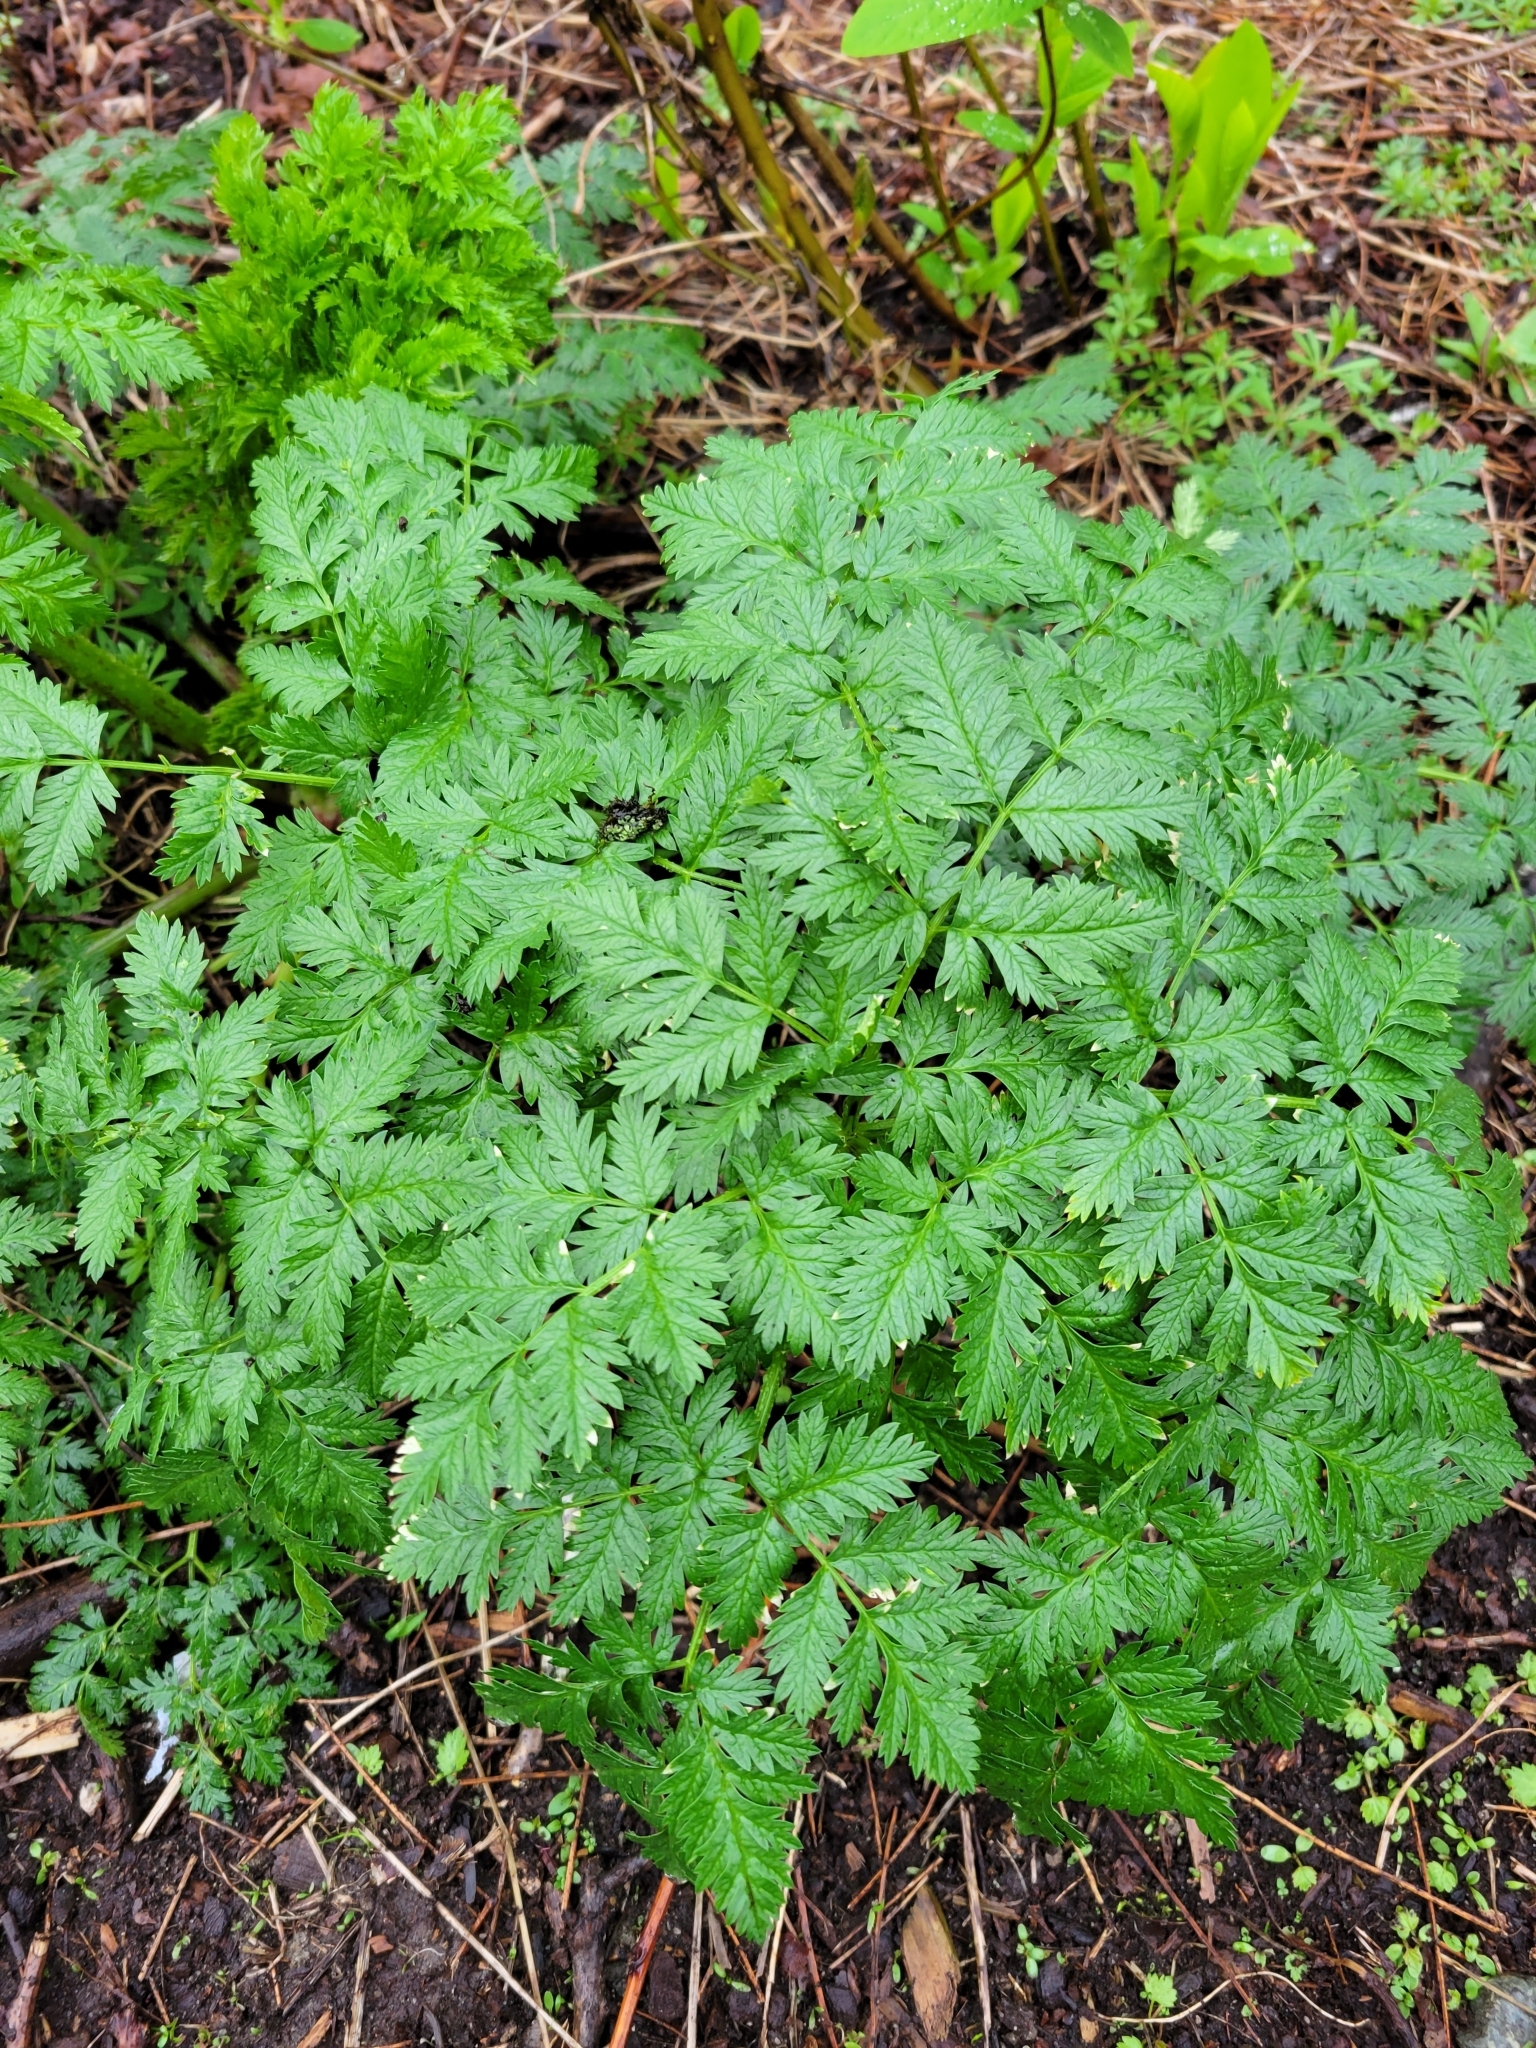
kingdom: Plantae
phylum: Tracheophyta
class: Magnoliopsida
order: Apiales
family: Apiaceae
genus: Conium
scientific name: Conium maculatum
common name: Hemlock
